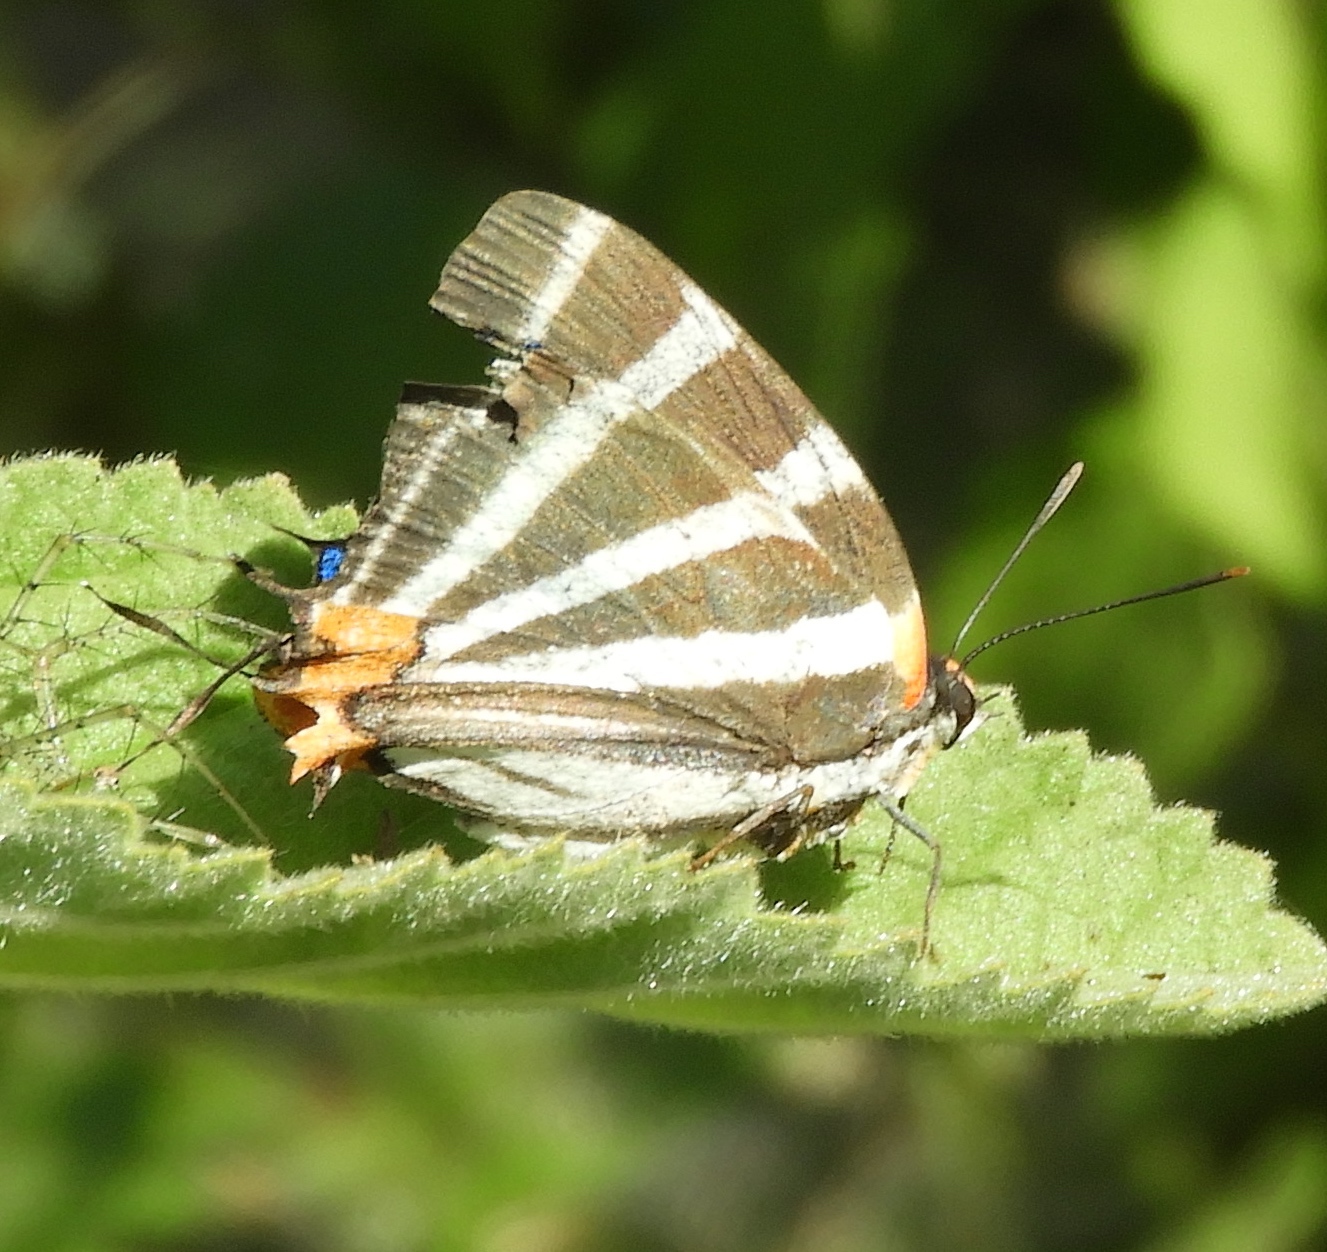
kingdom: Animalia
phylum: Arthropoda
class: Insecta
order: Lepidoptera
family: Lycaenidae
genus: Thecla
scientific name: Thecla bathildis
